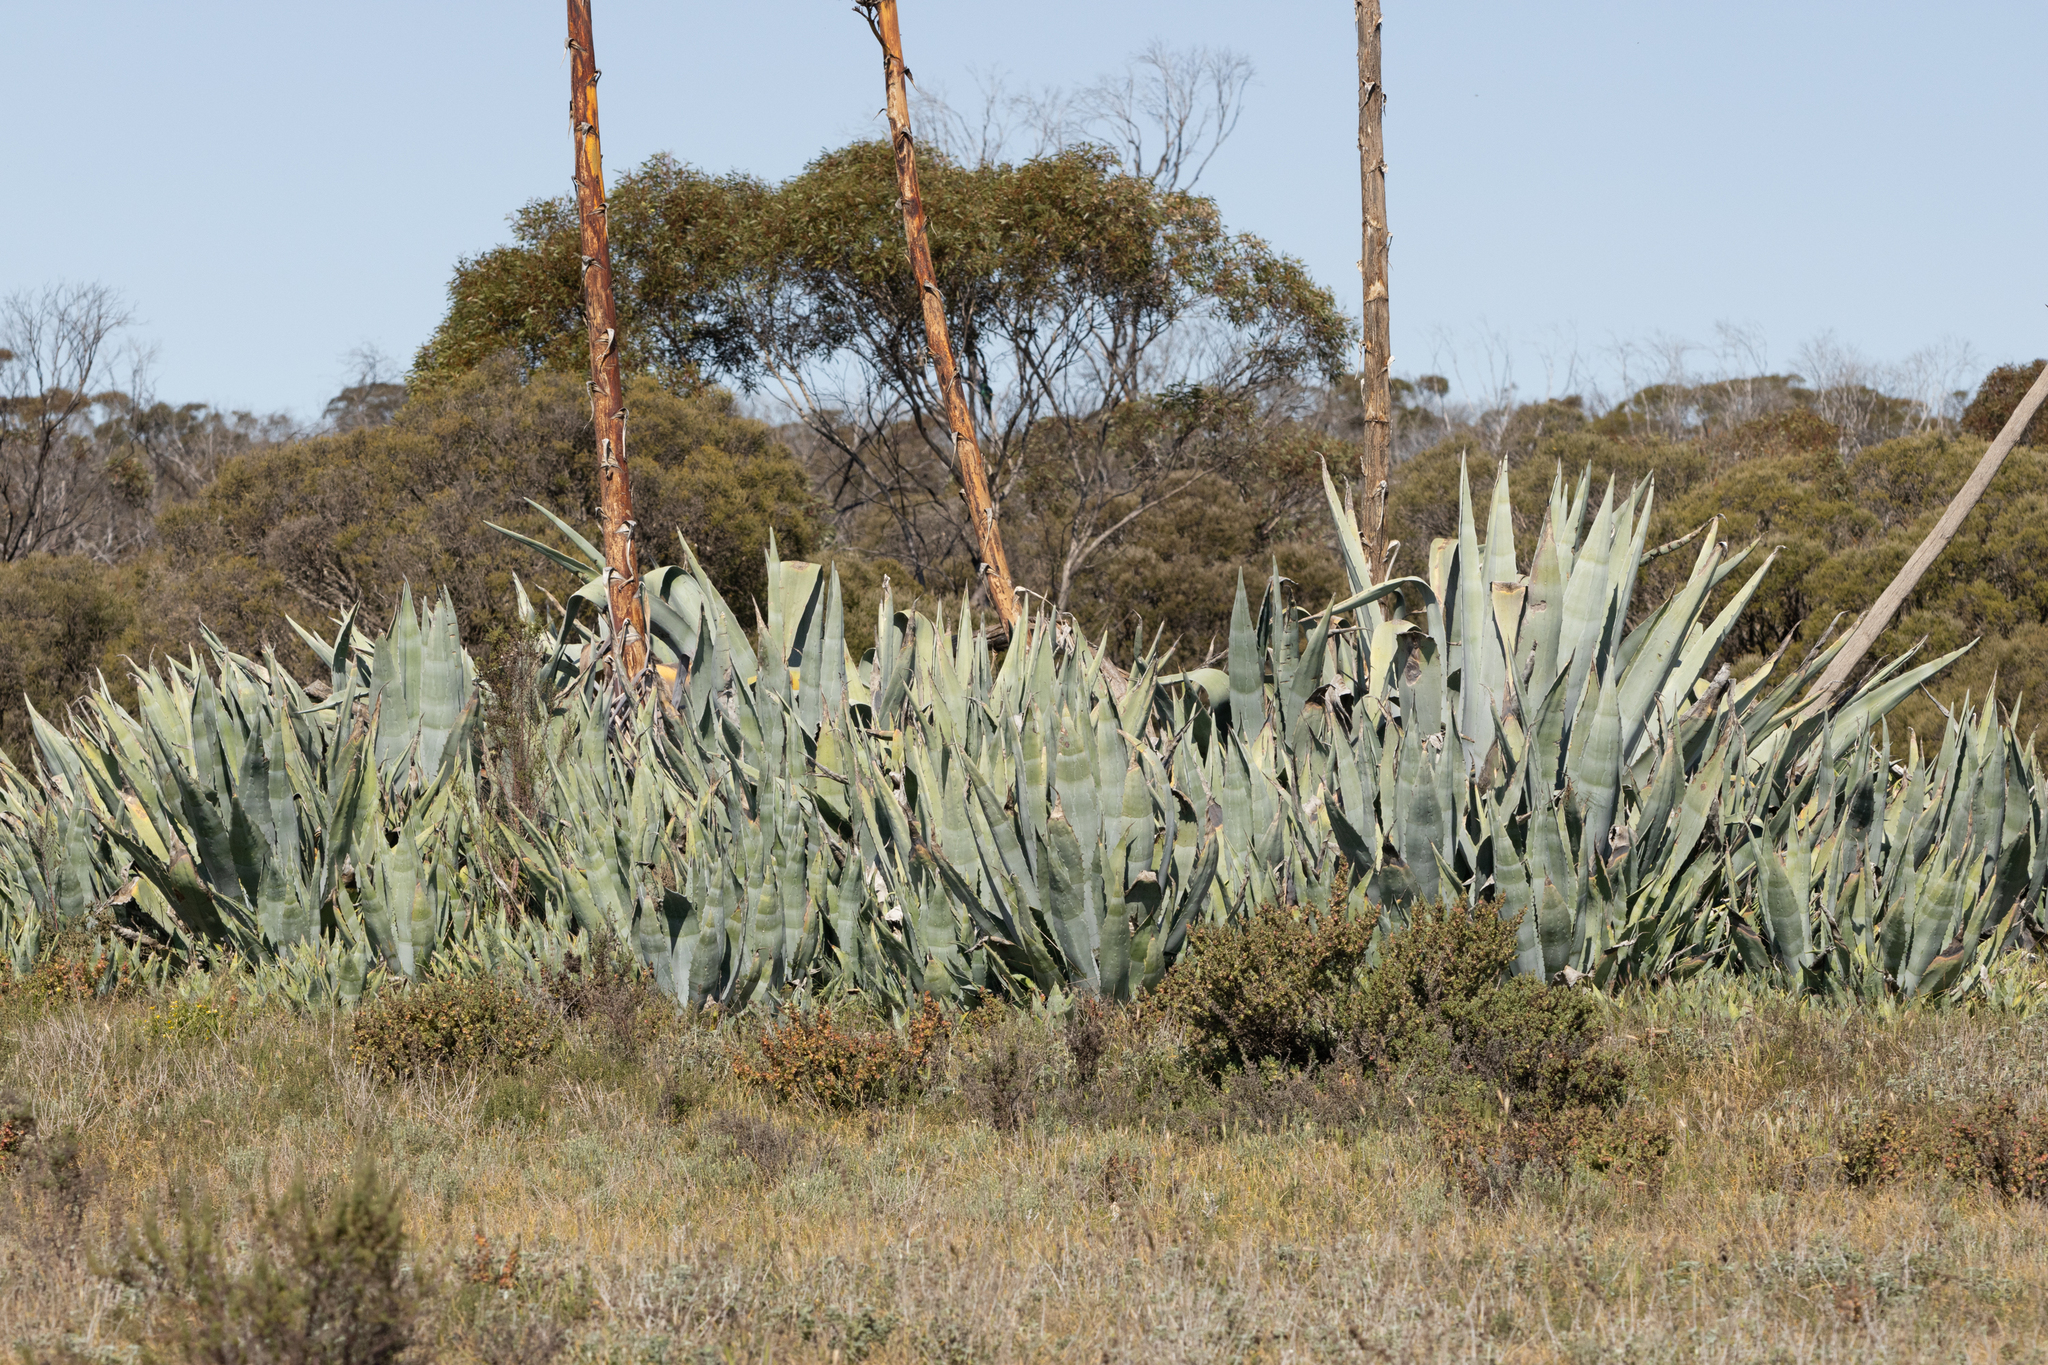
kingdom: Plantae
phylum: Tracheophyta
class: Liliopsida
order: Asparagales
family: Asparagaceae
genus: Agave
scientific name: Agave americana
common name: Centuryplant
